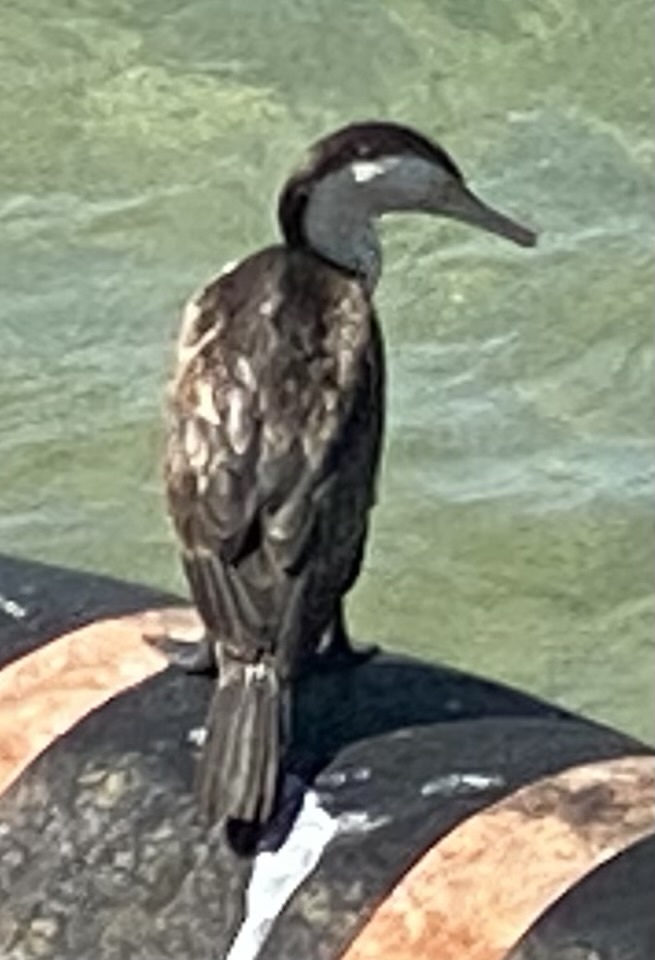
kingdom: Animalia
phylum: Chordata
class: Aves
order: Suliformes
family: Phalacrocoracidae
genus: Phalacrocorax
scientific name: Phalacrocorax varius
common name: Pied cormorant
